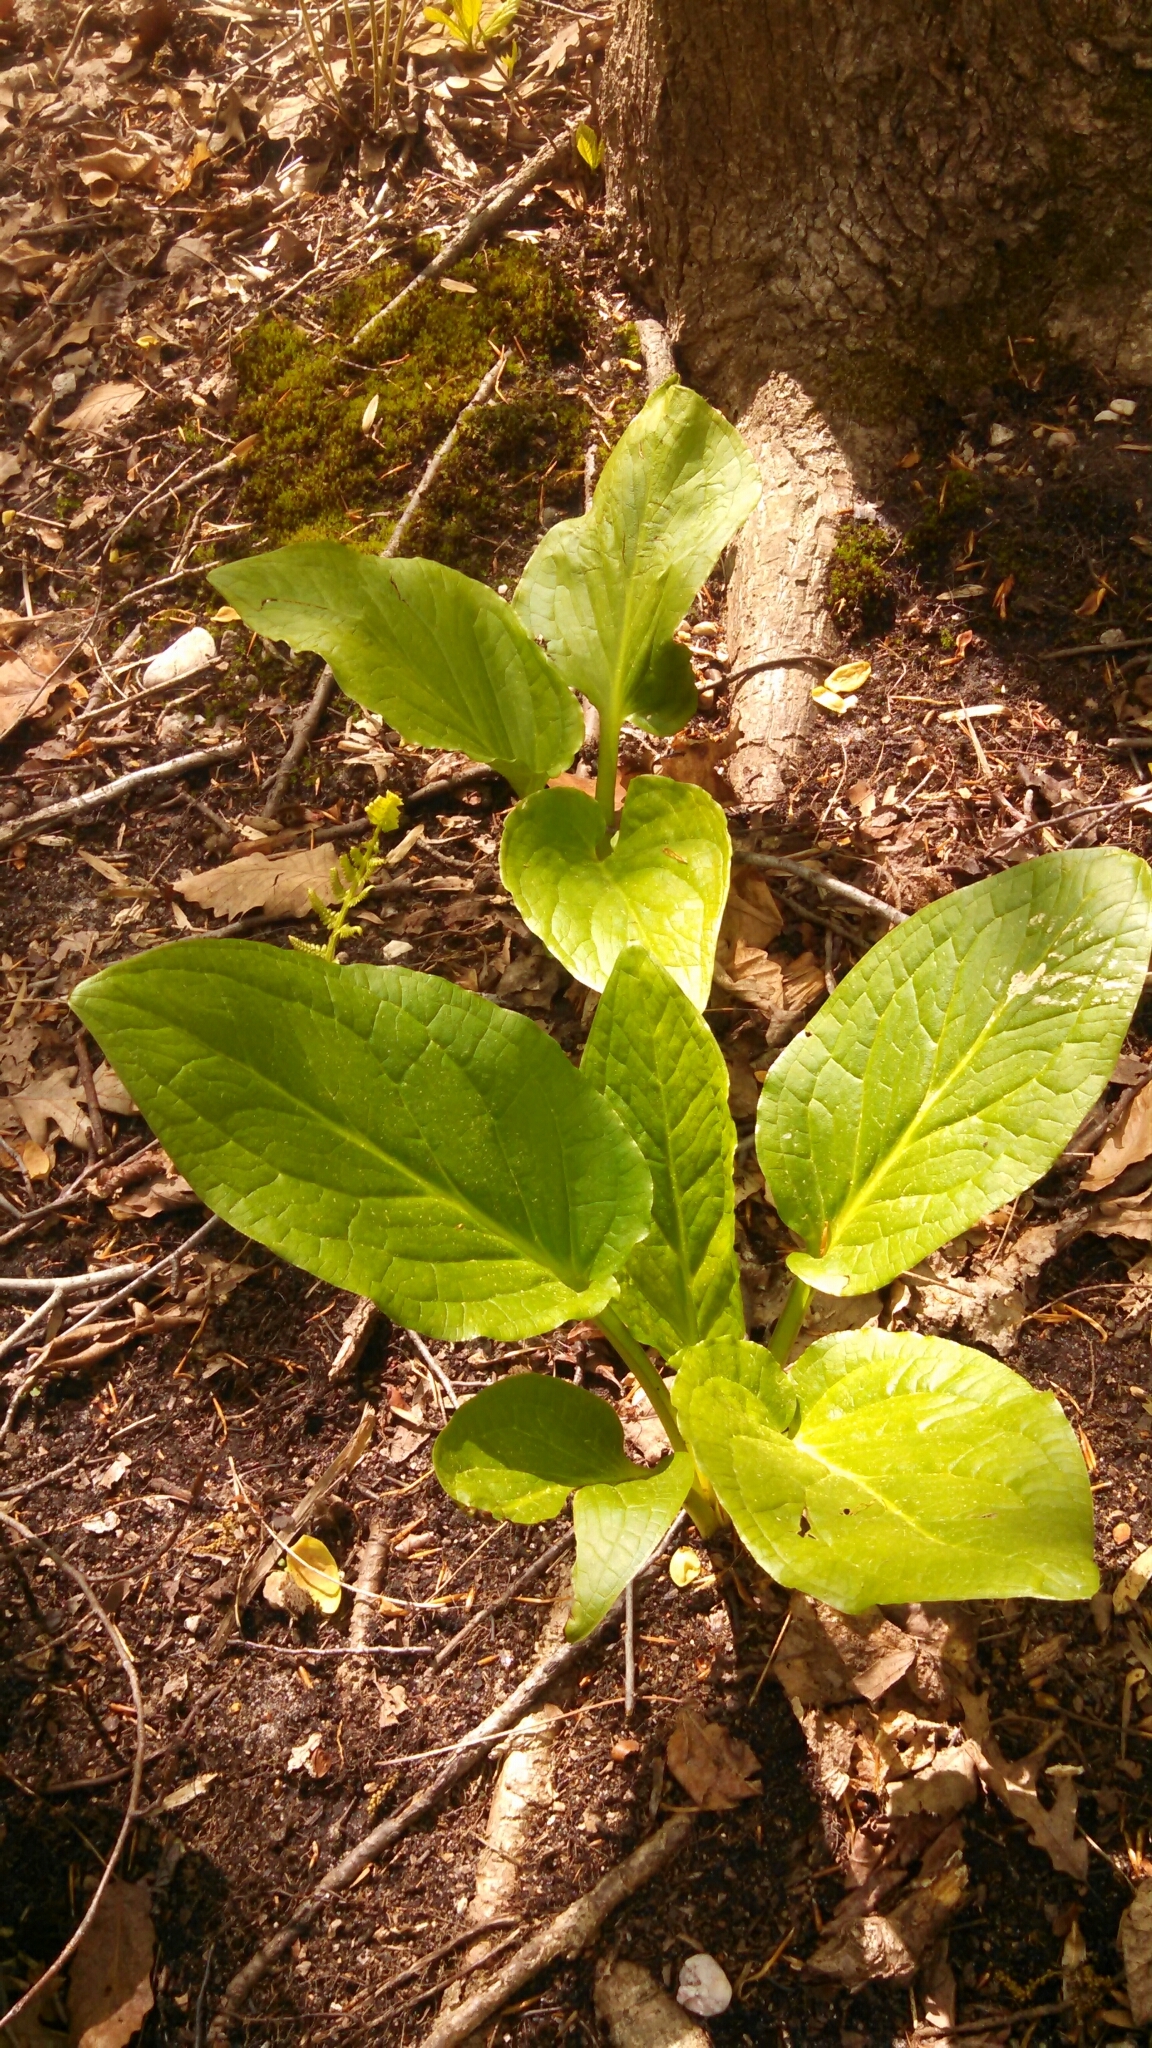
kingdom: Plantae
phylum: Tracheophyta
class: Liliopsida
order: Alismatales
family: Araceae
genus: Symplocarpus
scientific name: Symplocarpus foetidus
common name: Eastern skunk cabbage
